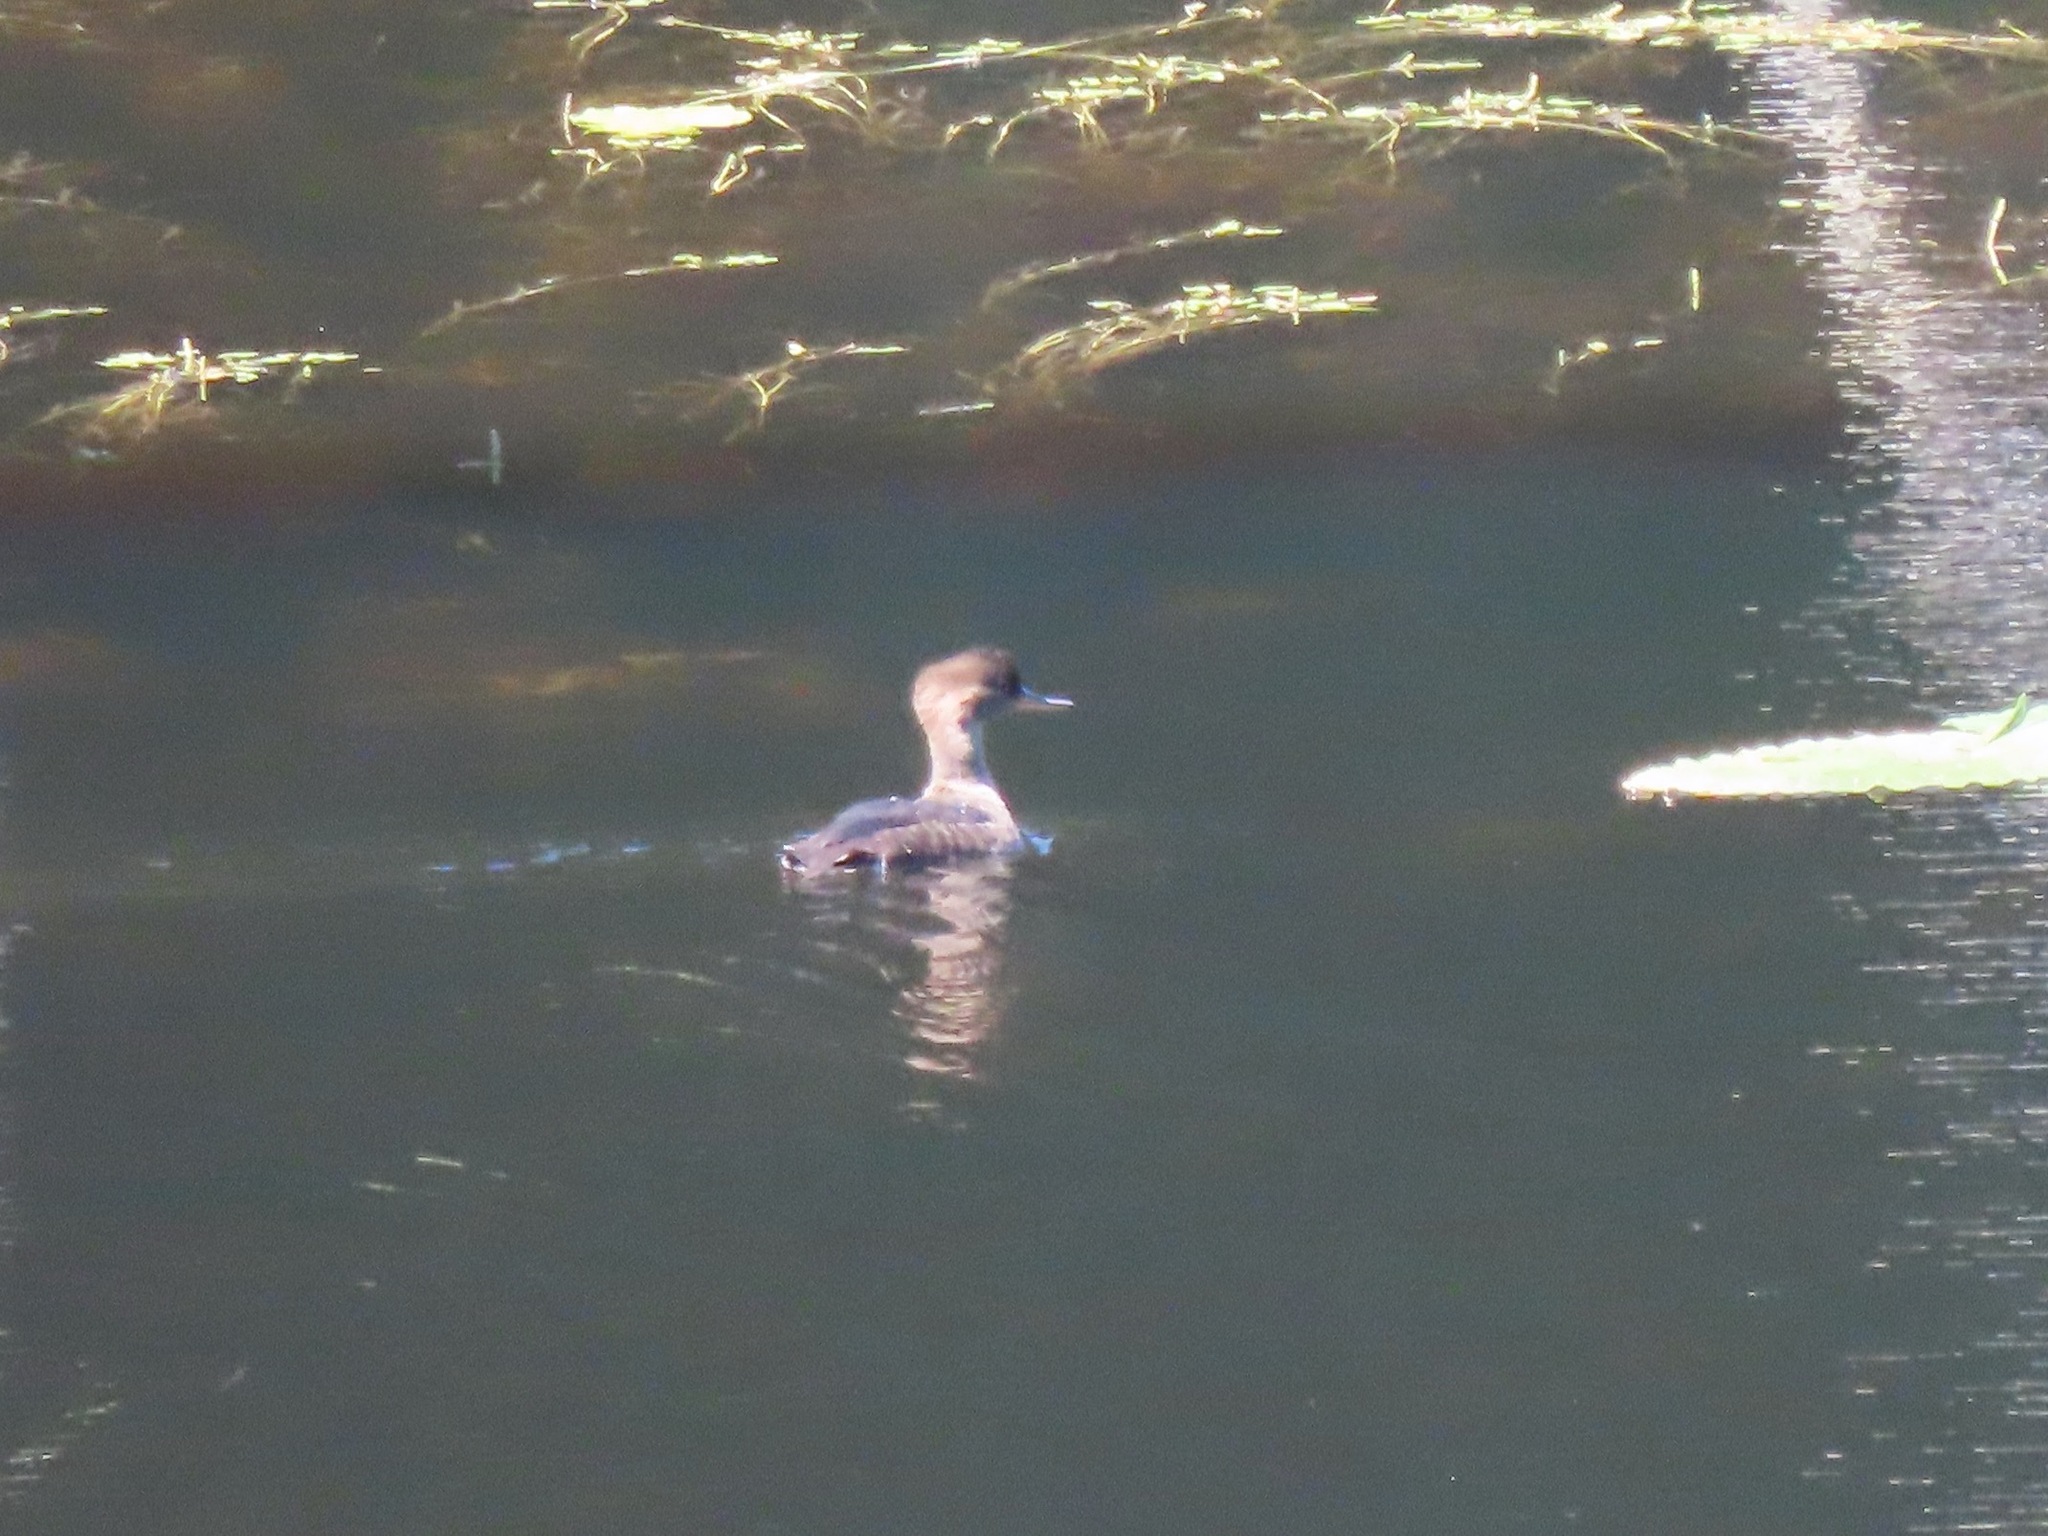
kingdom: Animalia
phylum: Chordata
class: Aves
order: Anseriformes
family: Anatidae
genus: Lophodytes
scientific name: Lophodytes cucullatus
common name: Hooded merganser
